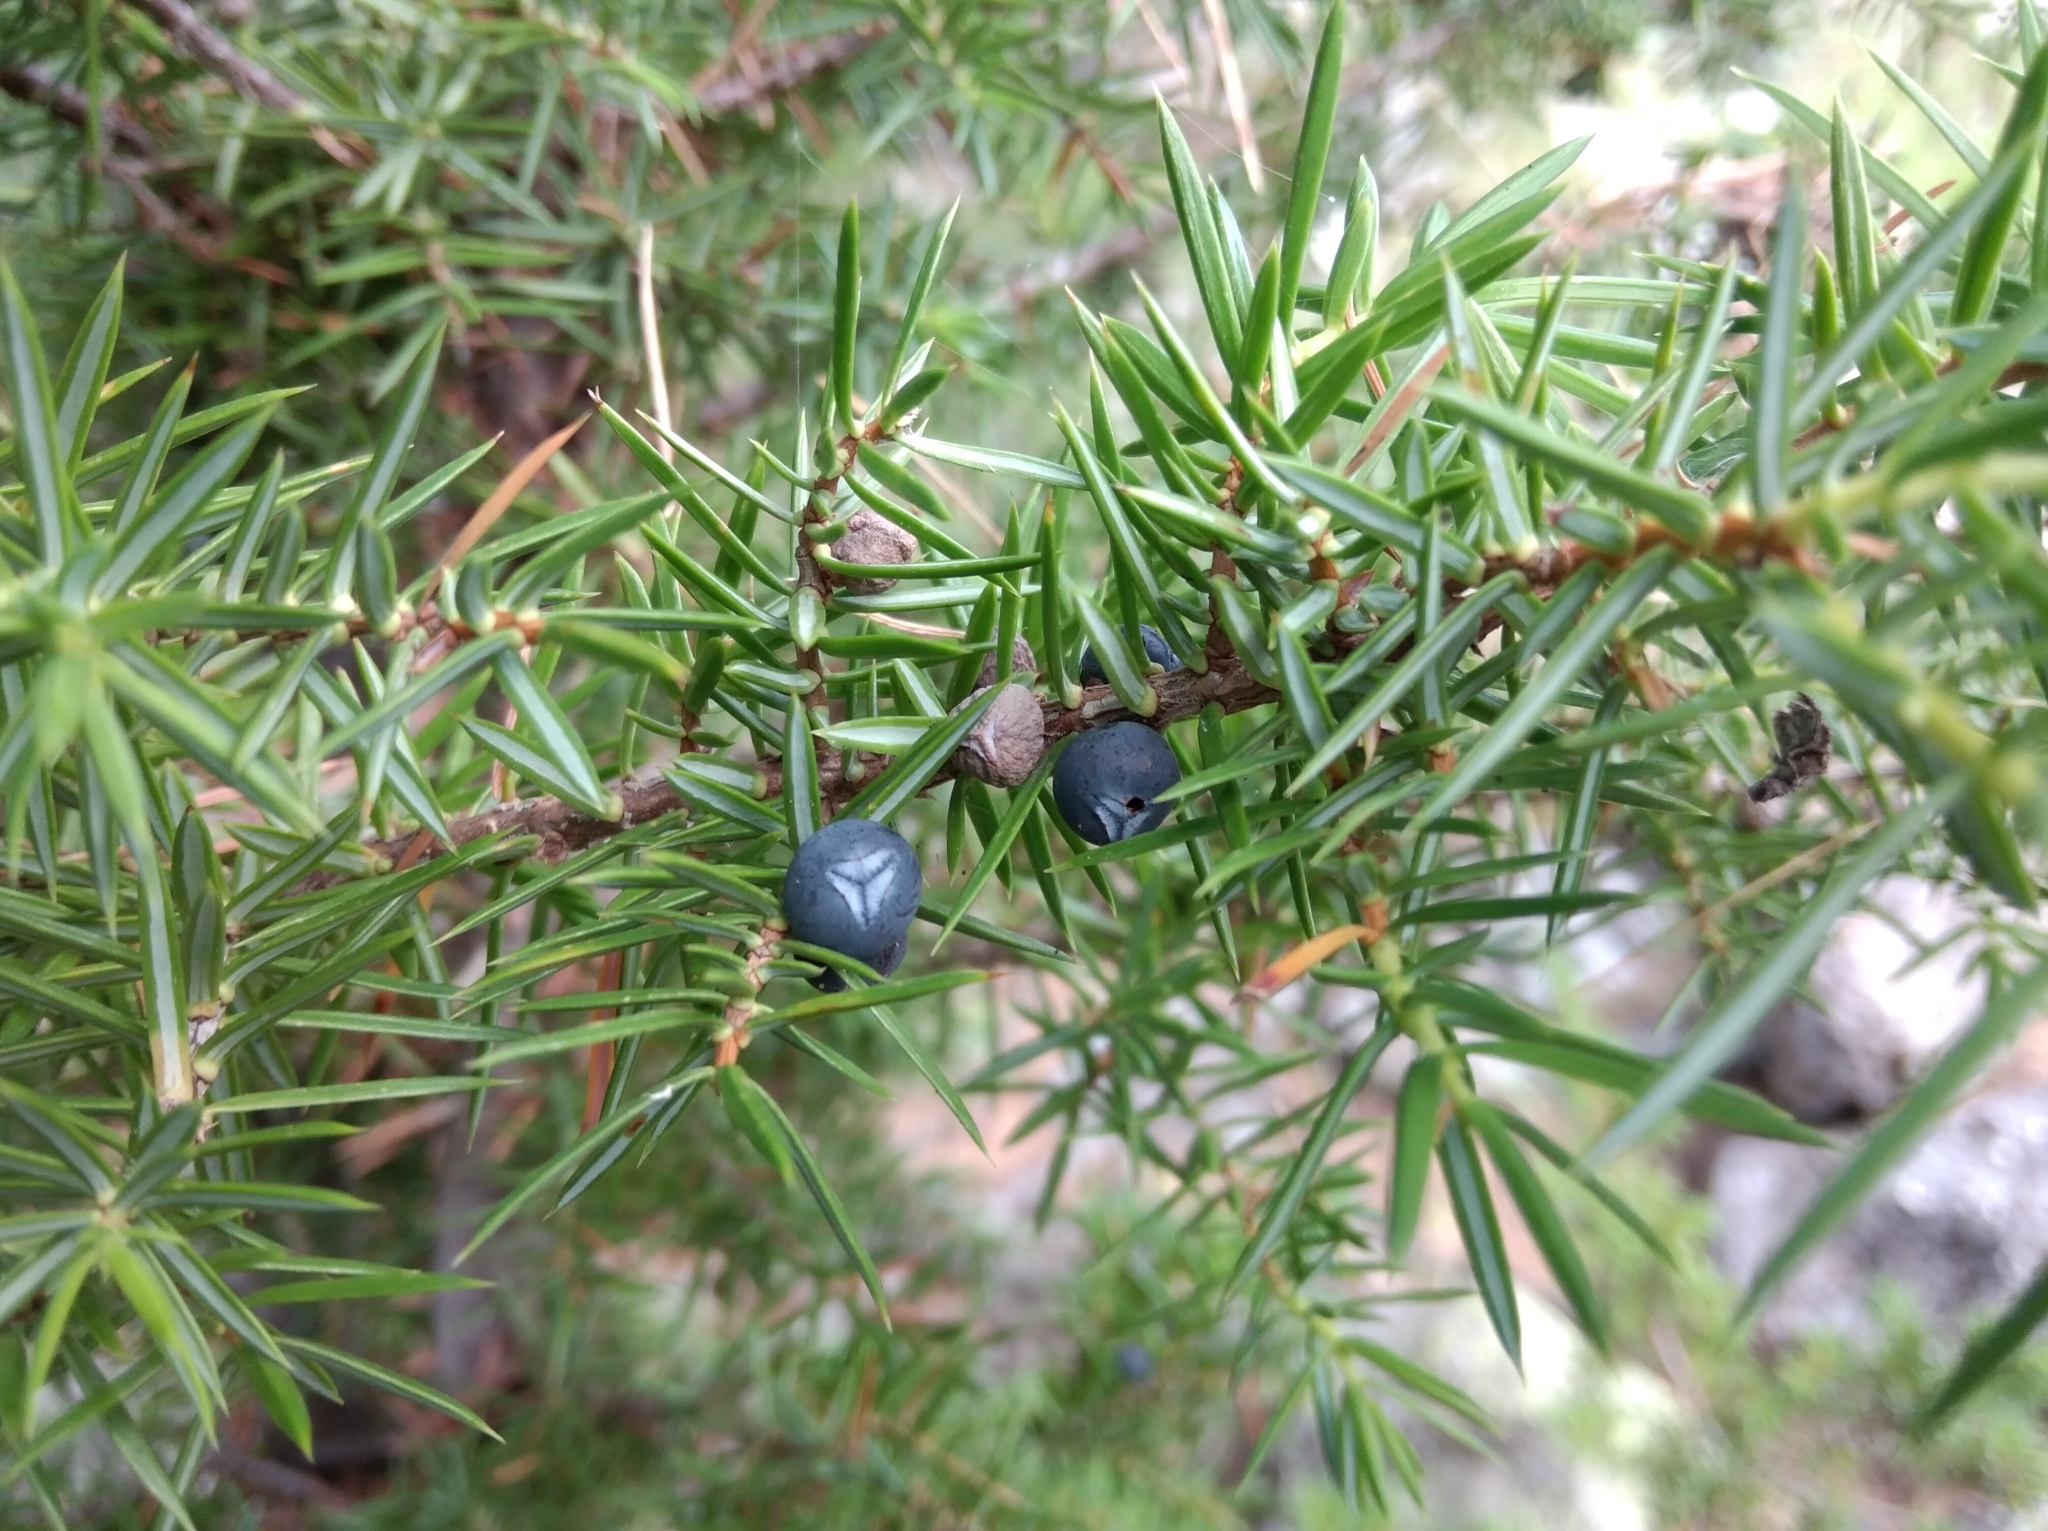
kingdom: Plantae
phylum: Tracheophyta
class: Pinopsida
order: Pinales
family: Cupressaceae
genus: Juniperus
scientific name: Juniperus communis
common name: Common juniper
